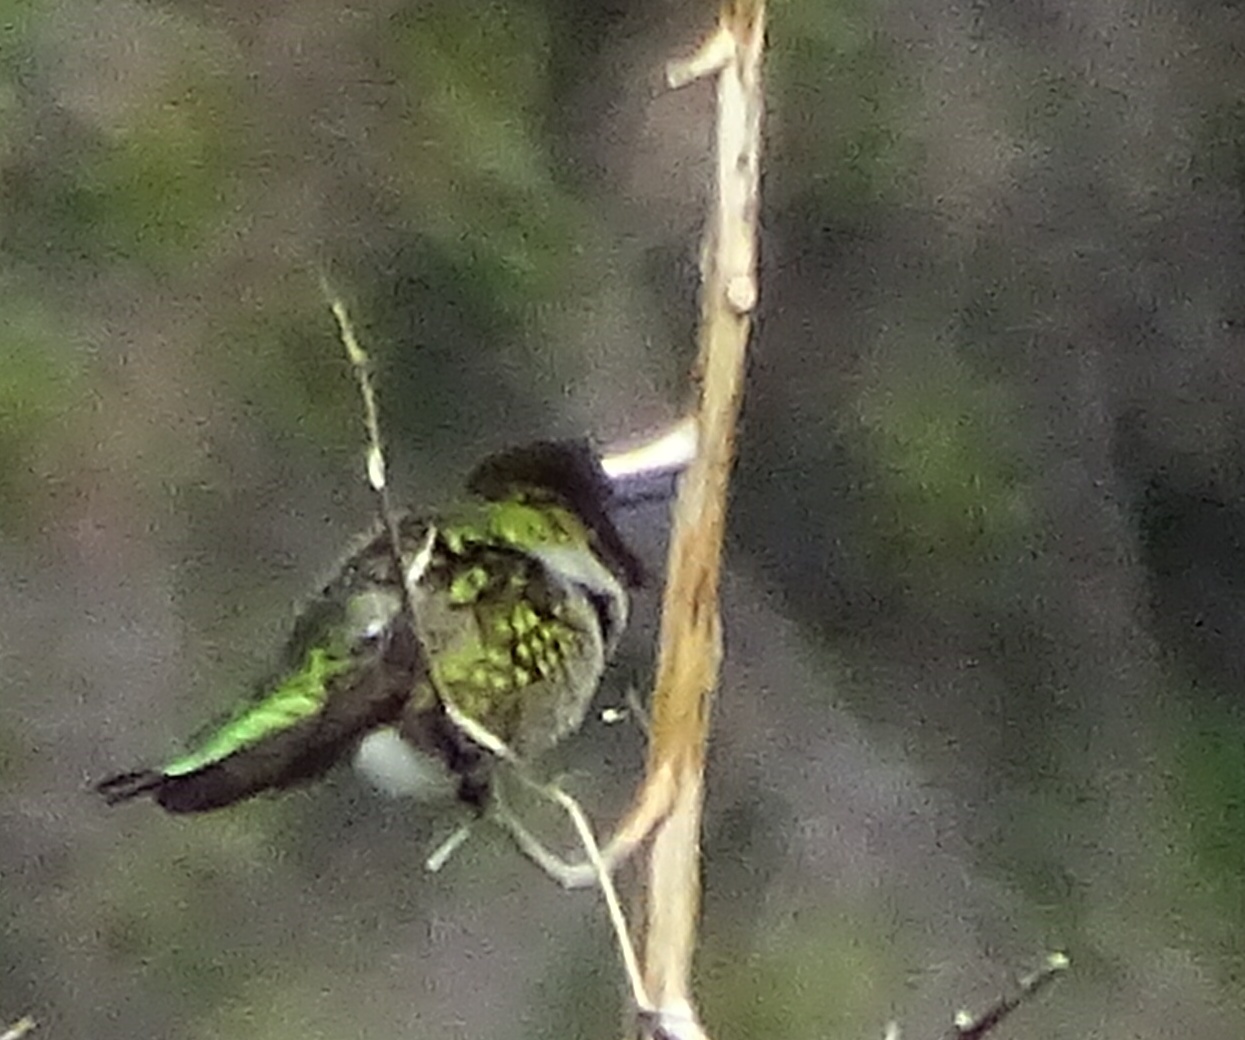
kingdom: Animalia
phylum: Chordata
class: Aves
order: Apodiformes
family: Trochilidae
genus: Calypte
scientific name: Calypte anna
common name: Anna's hummingbird
